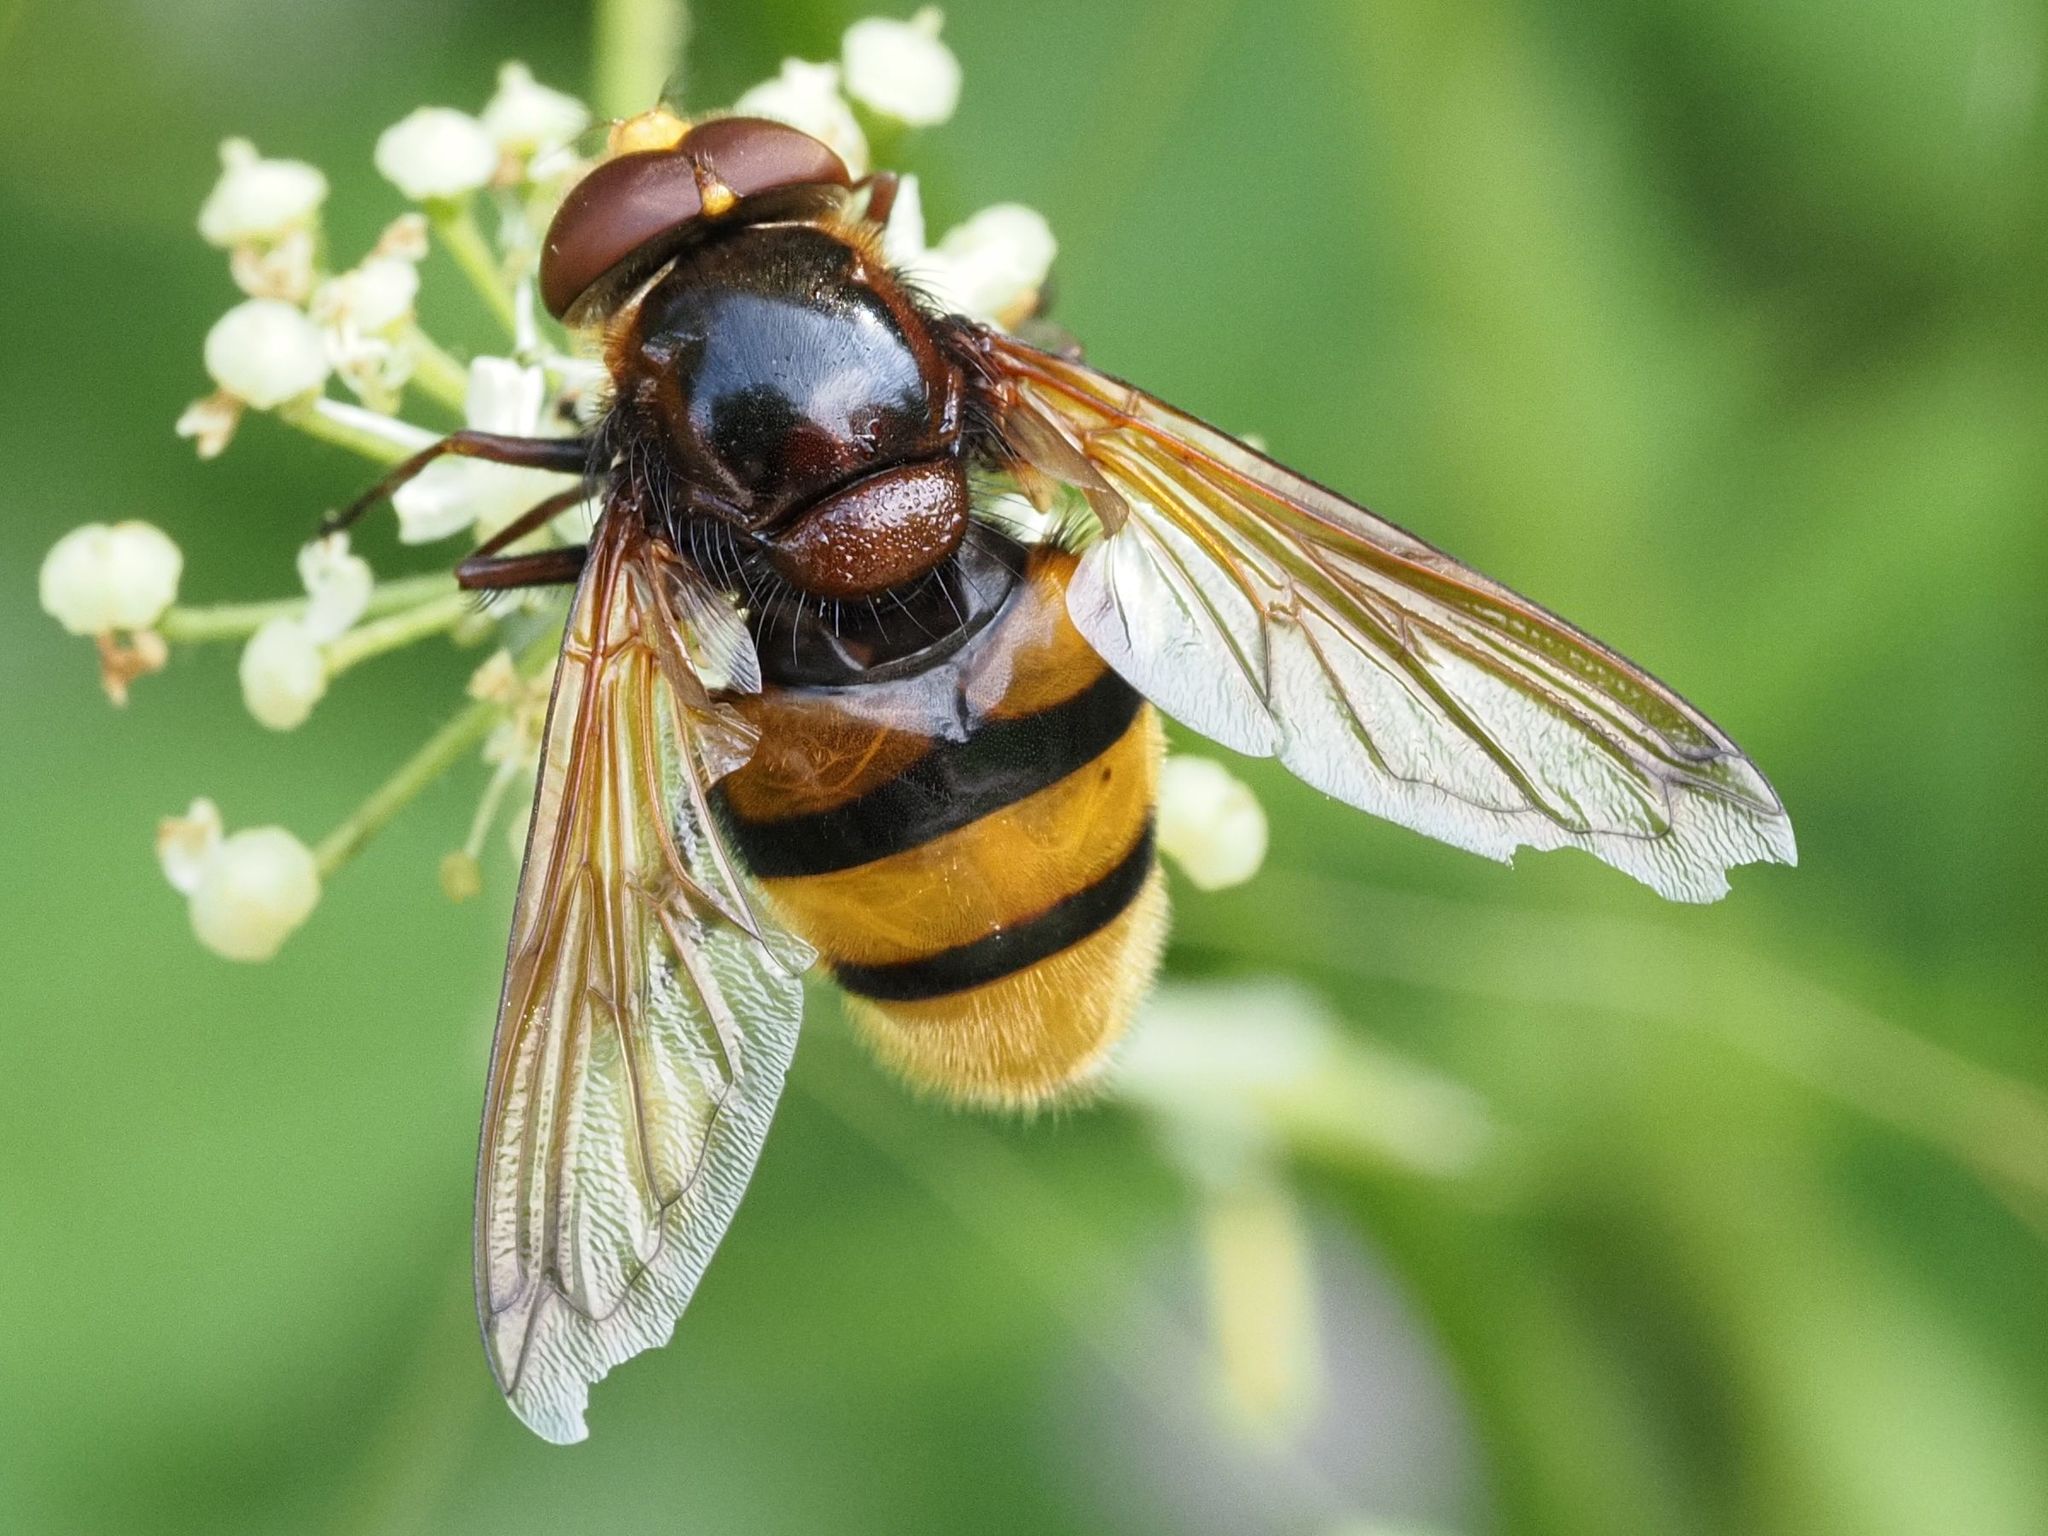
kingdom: Animalia
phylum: Arthropoda
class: Insecta
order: Diptera
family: Syrphidae
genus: Volucella
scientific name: Volucella zonaria
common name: Hornet hoverfly
